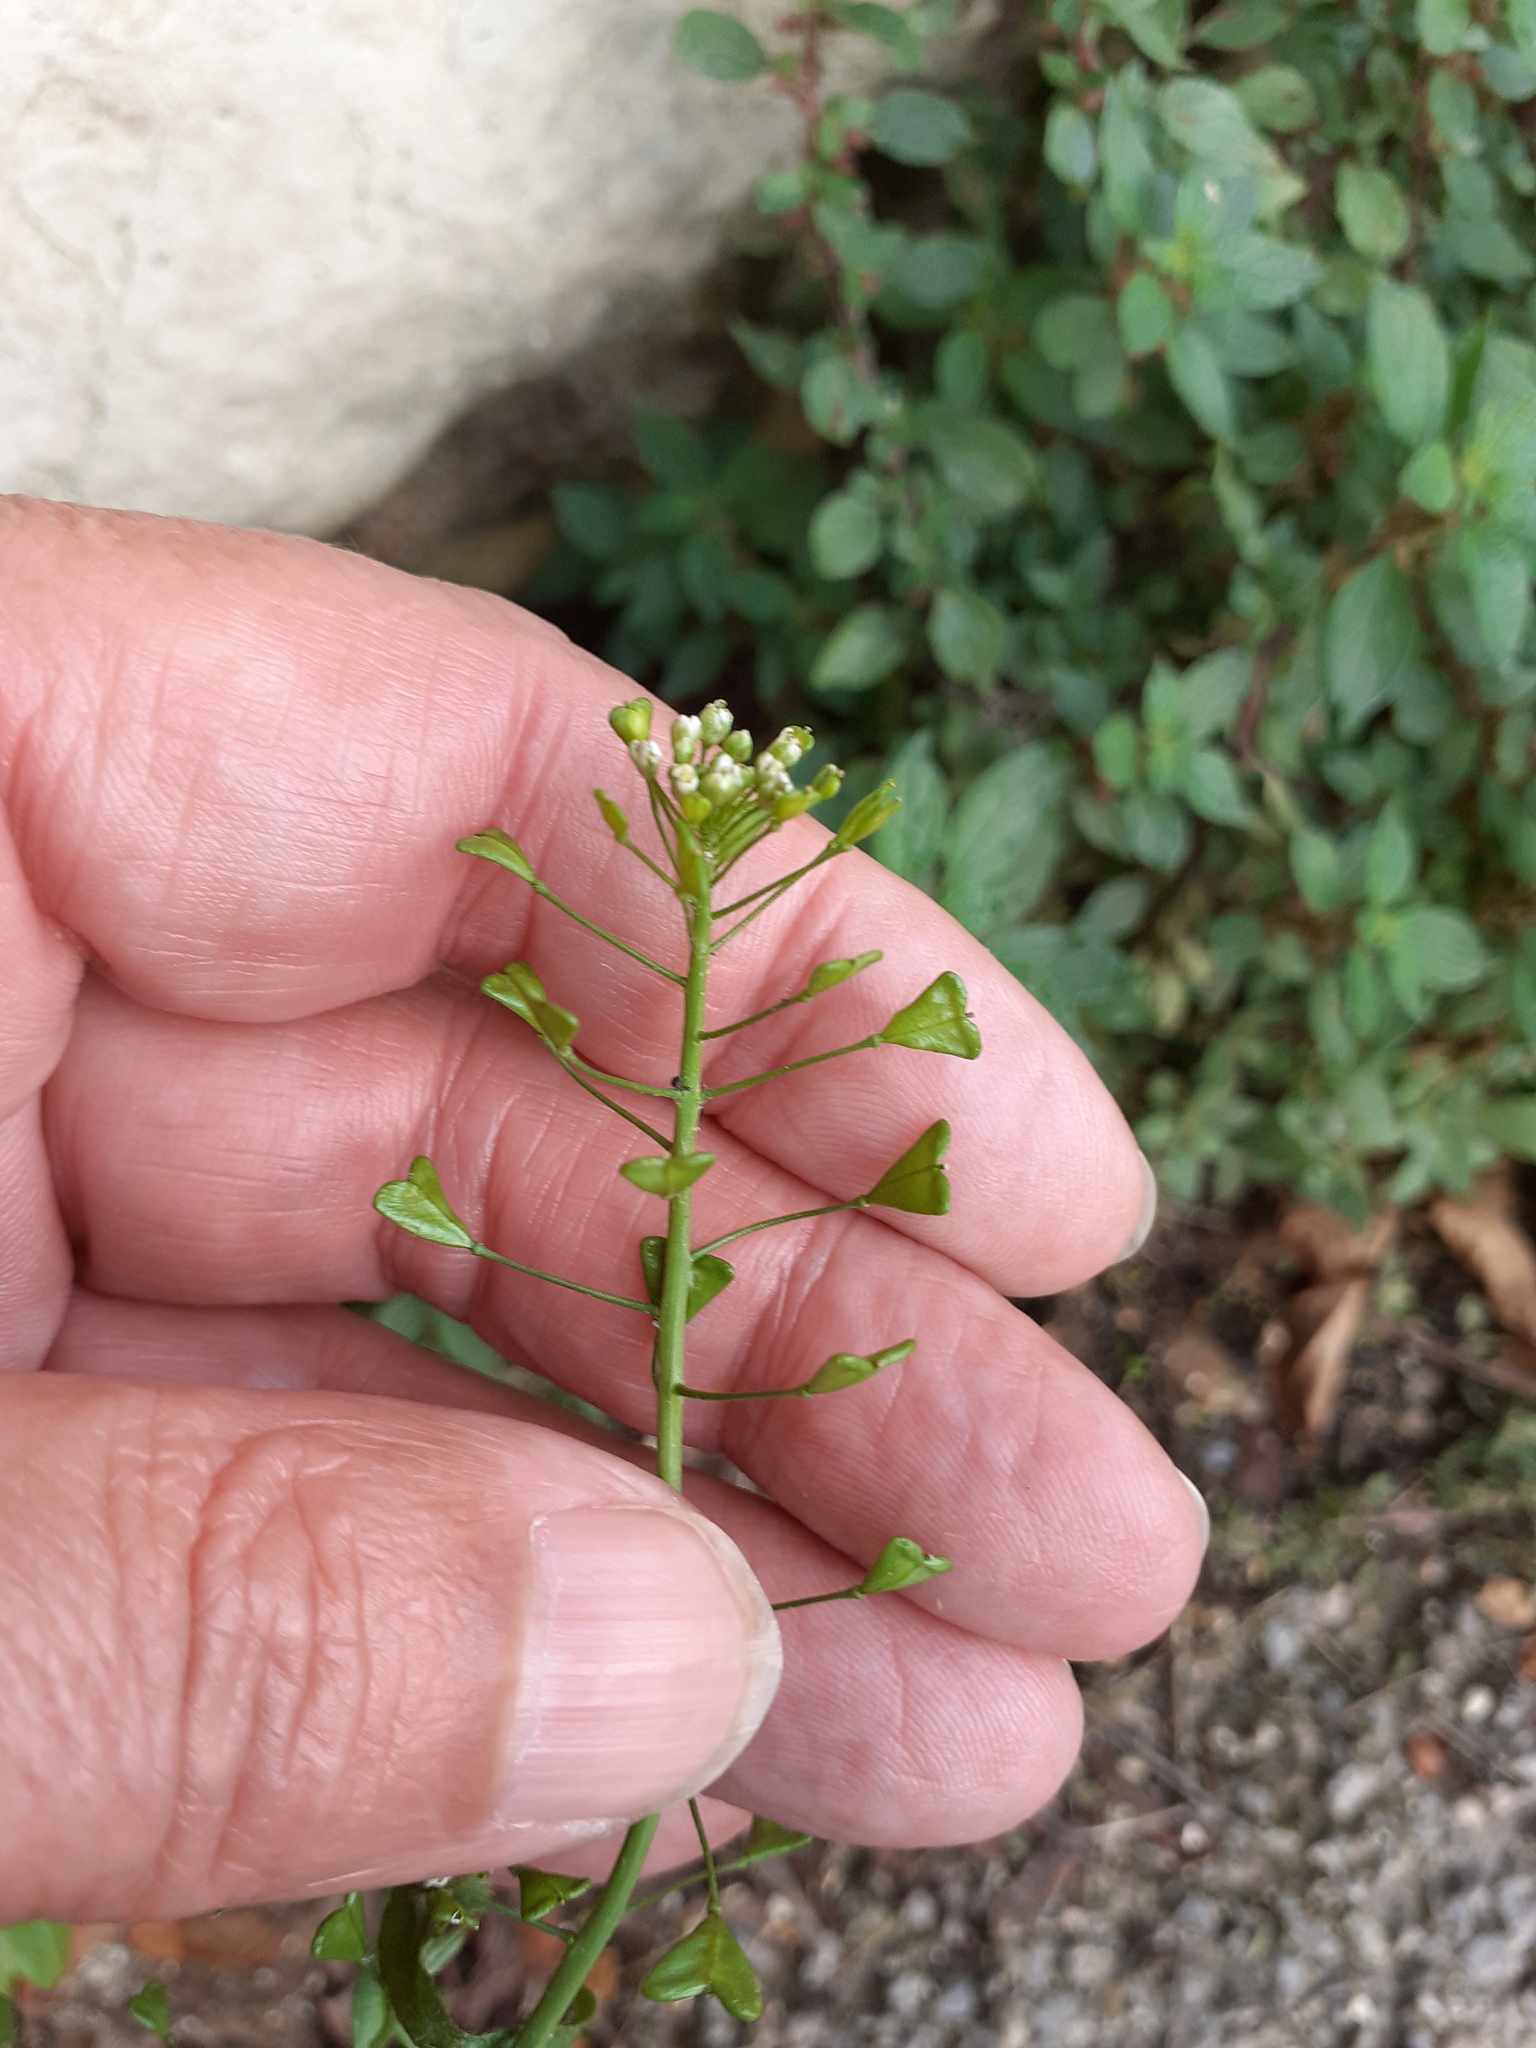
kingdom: Plantae
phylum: Tracheophyta
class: Magnoliopsida
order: Brassicales
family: Brassicaceae
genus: Capsella
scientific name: Capsella bursa-pastoris
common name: Shepherd's purse
